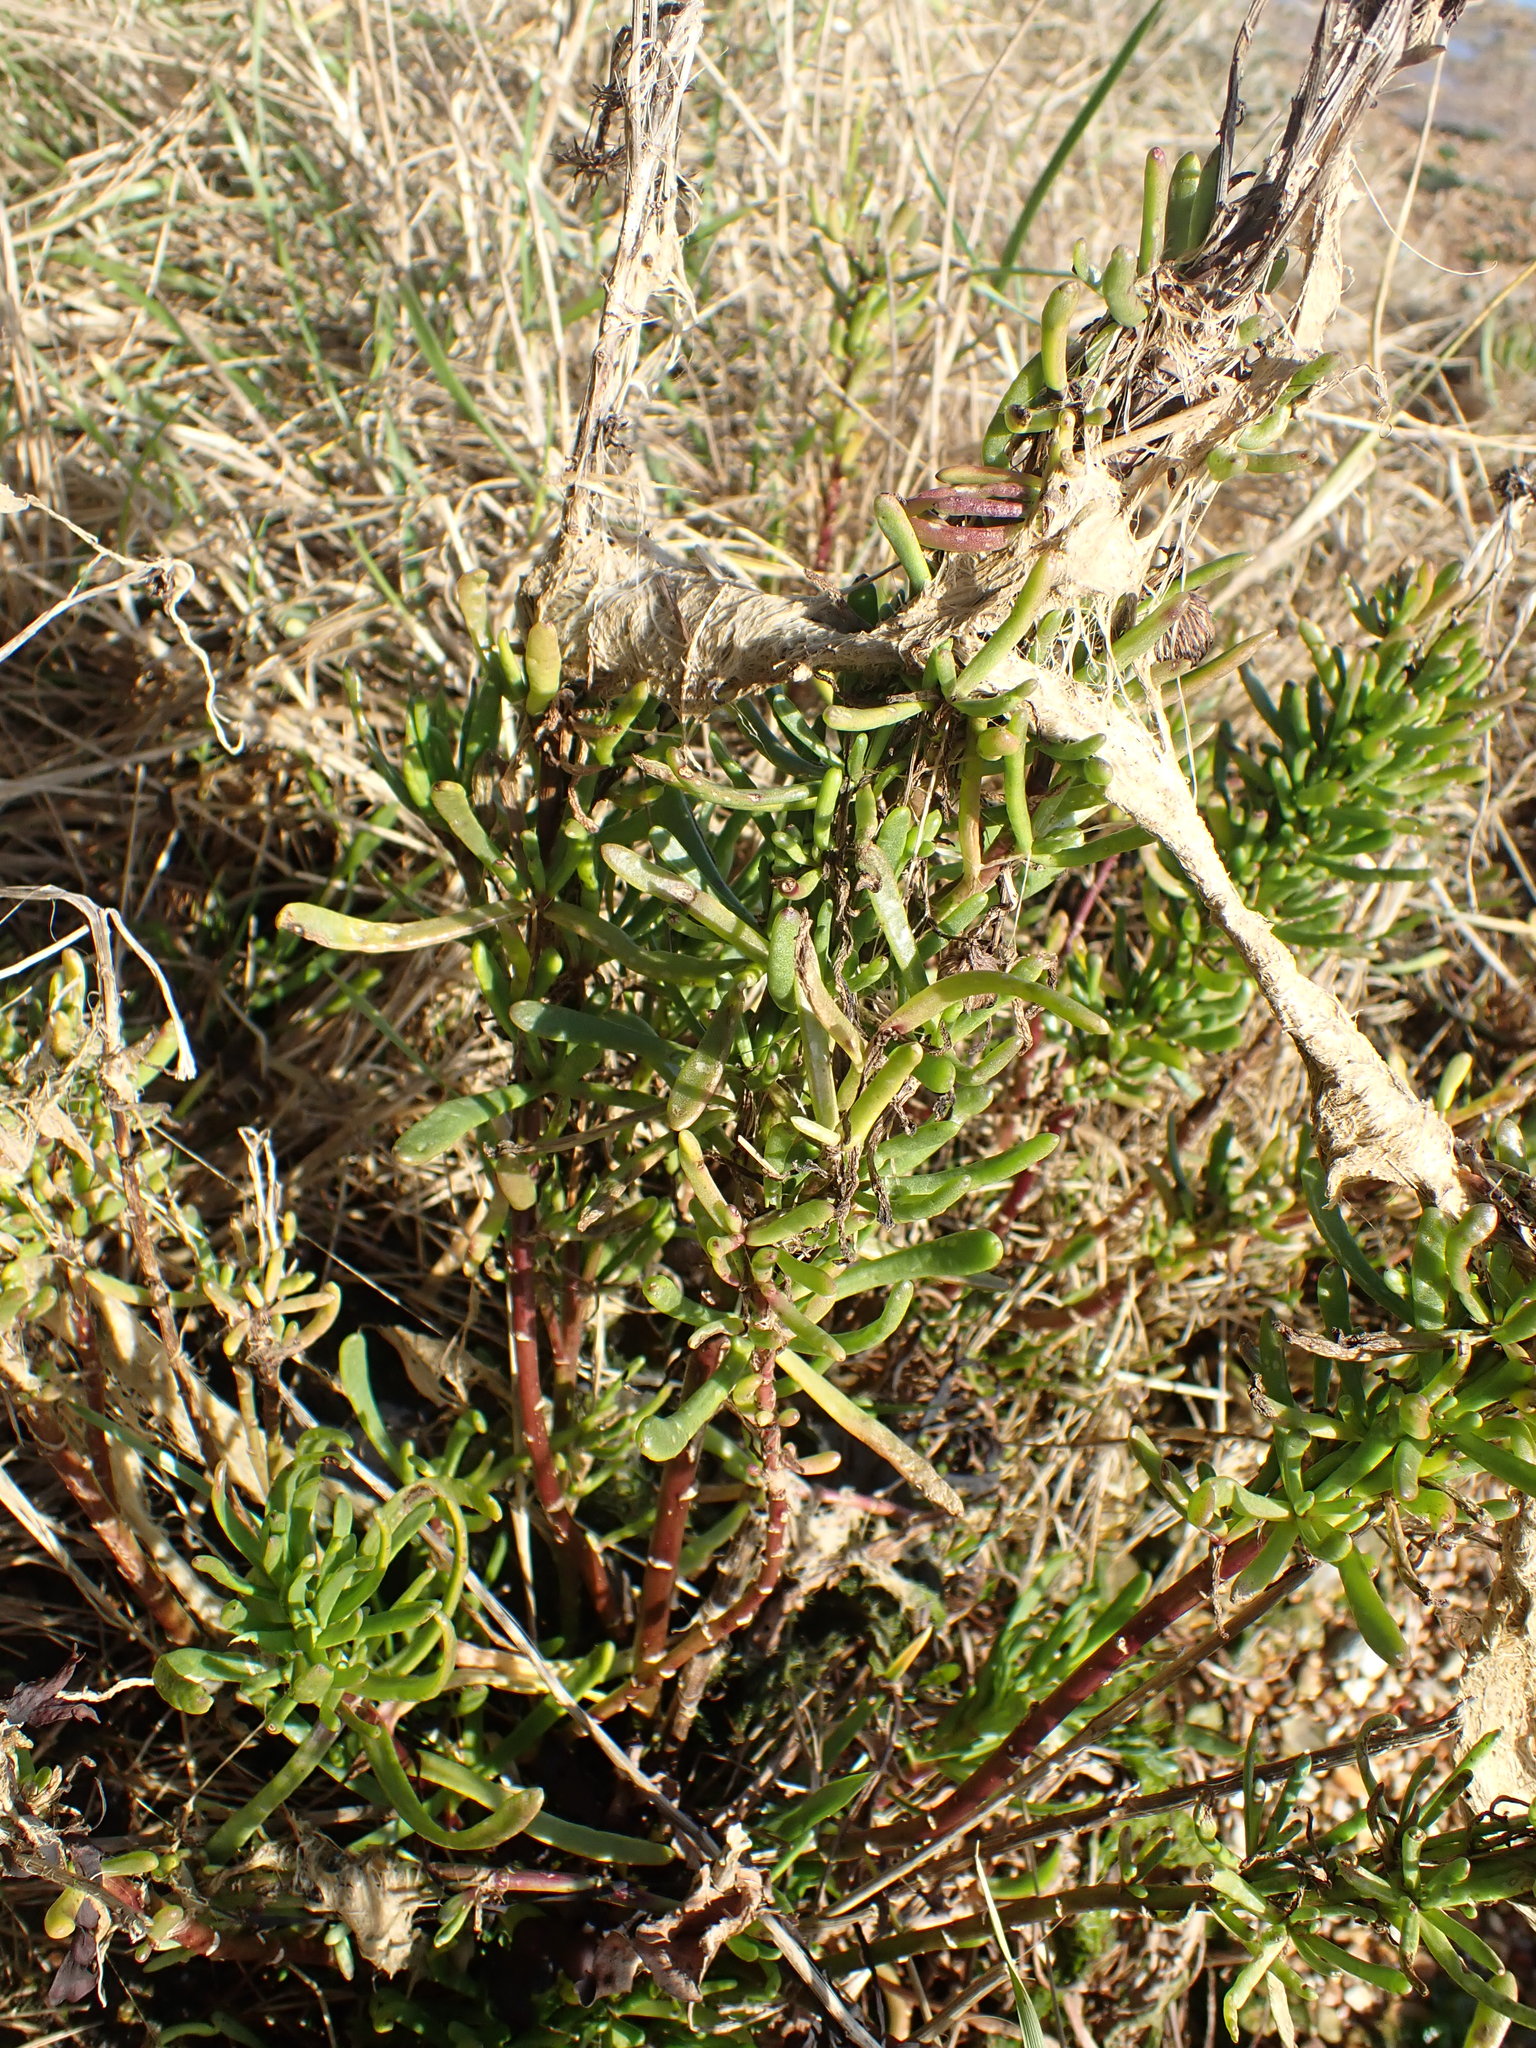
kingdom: Plantae
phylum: Tracheophyta
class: Magnoliopsida
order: Asterales
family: Asteraceae
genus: Limbarda
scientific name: Limbarda crithmoides
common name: Golden samphire
